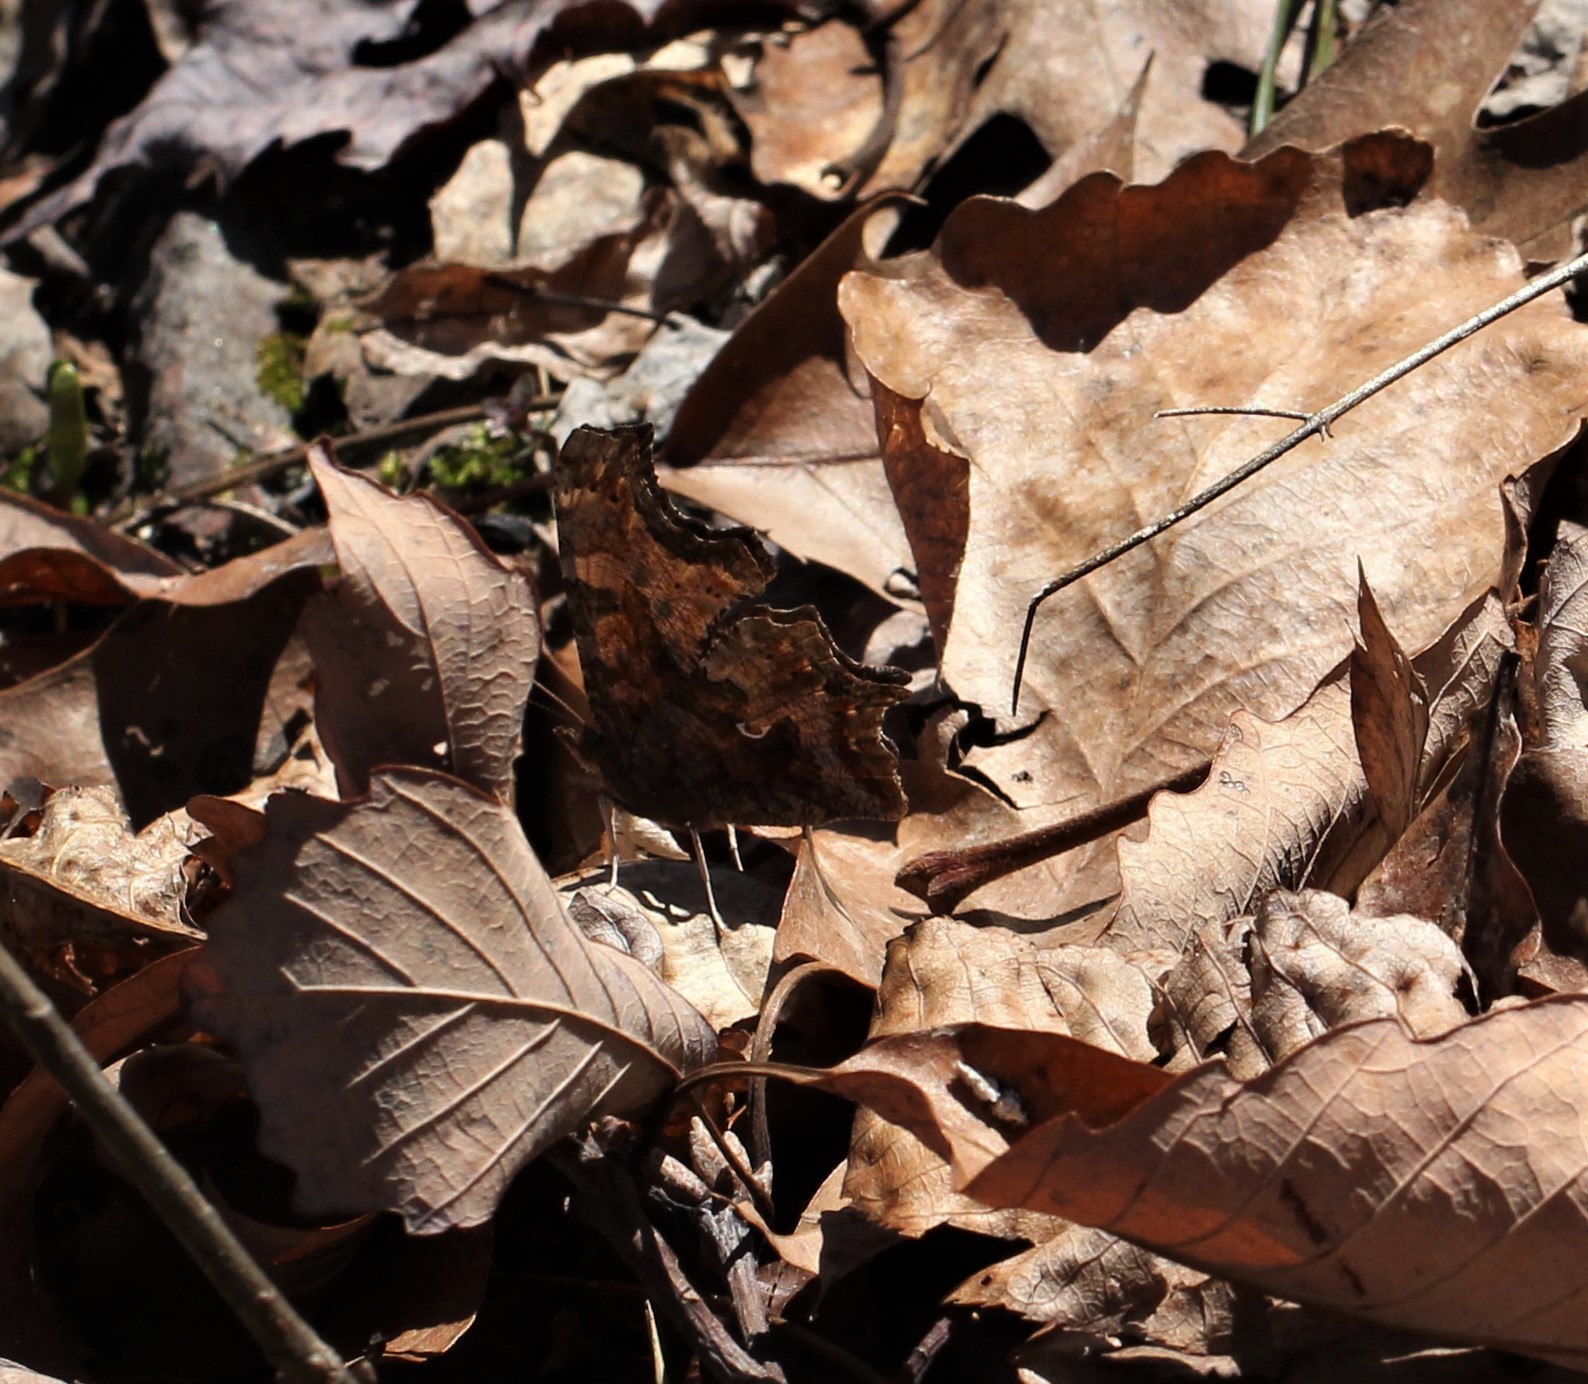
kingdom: Animalia
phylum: Arthropoda
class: Insecta
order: Lepidoptera
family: Nymphalidae
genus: Polygonia
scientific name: Polygonia comma
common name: Eastern comma
